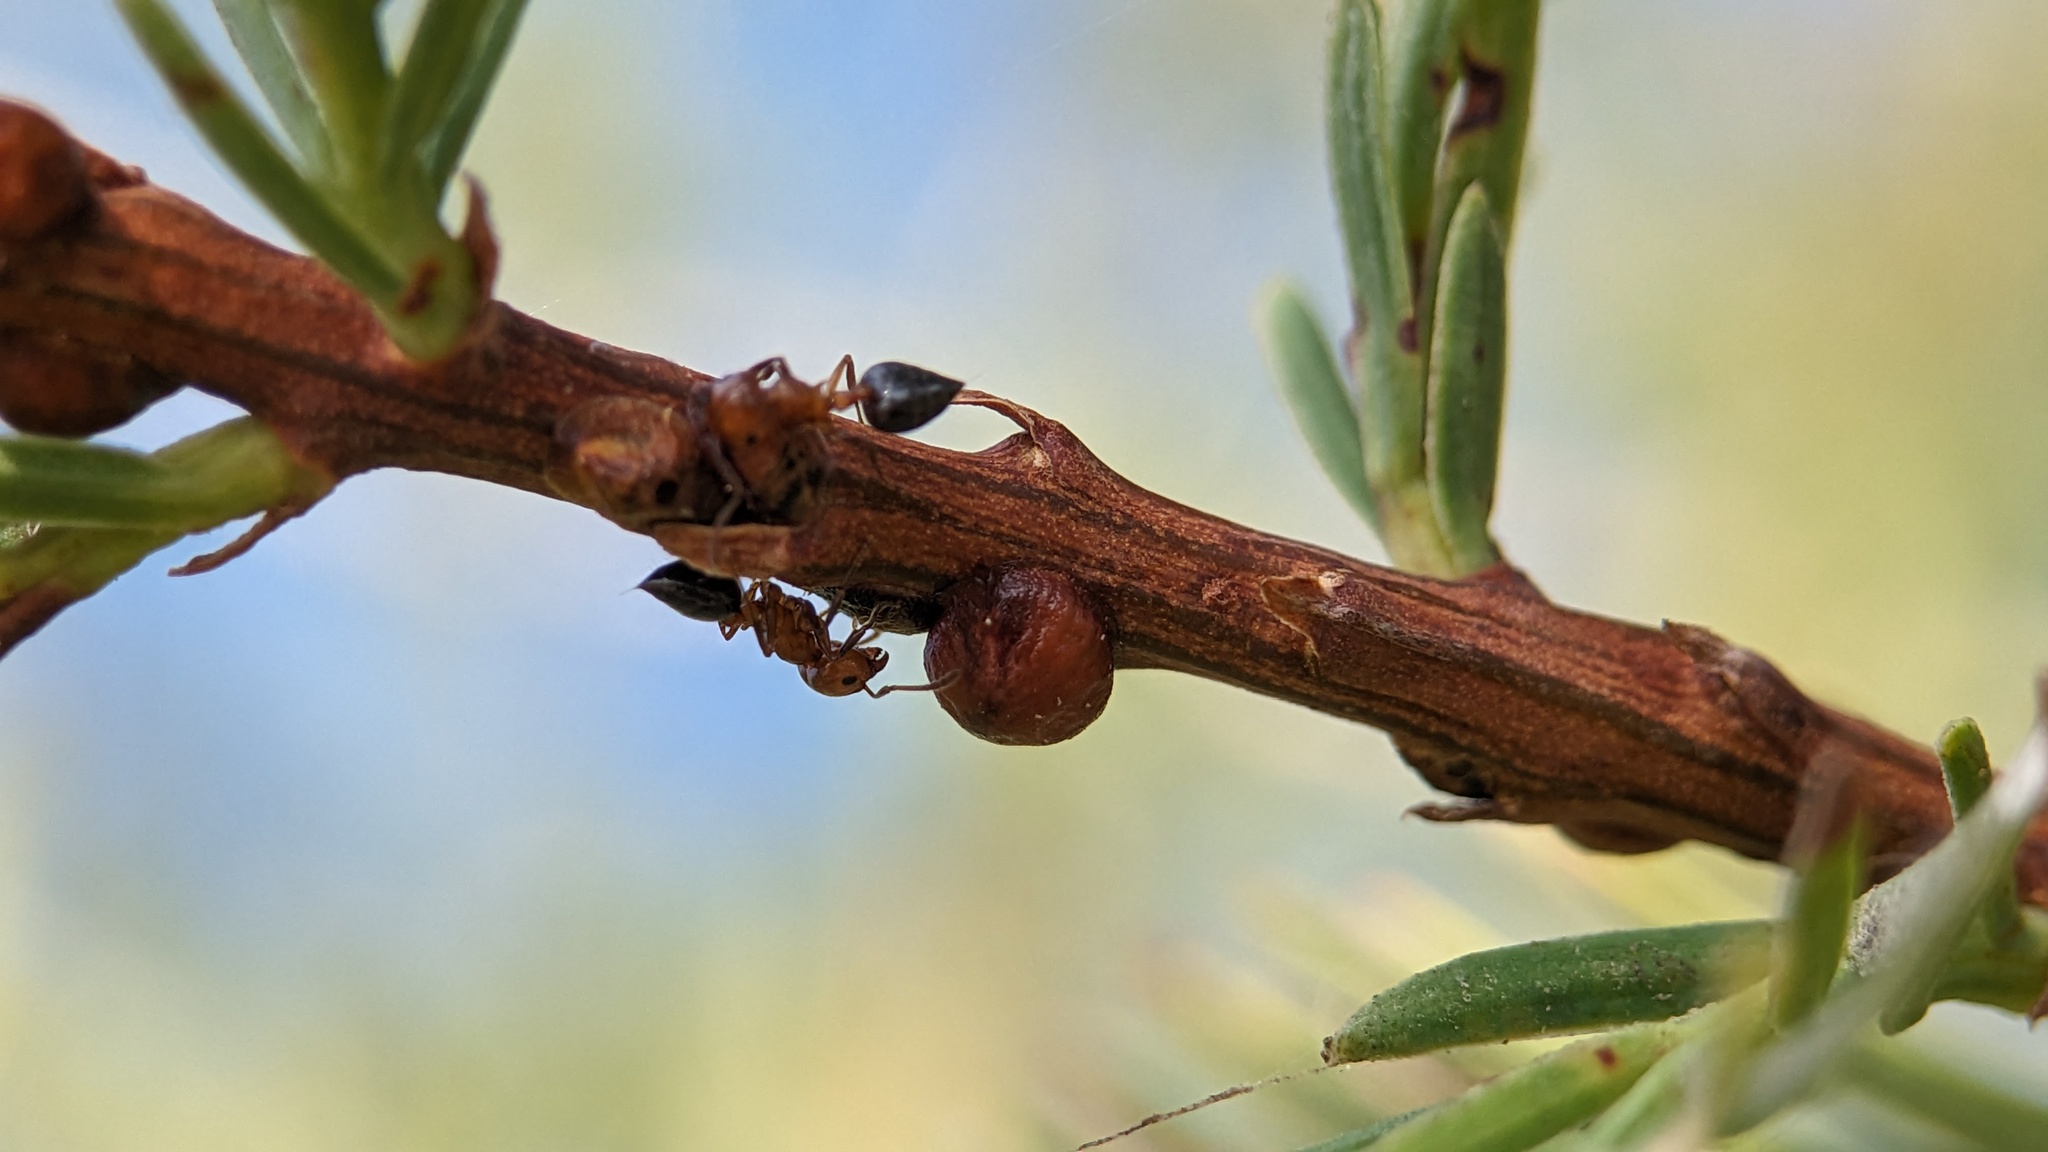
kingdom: Animalia
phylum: Arthropoda
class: Insecta
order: Hymenoptera
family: Formicidae
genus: Crematogaster
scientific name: Crematogaster laeviuscula
